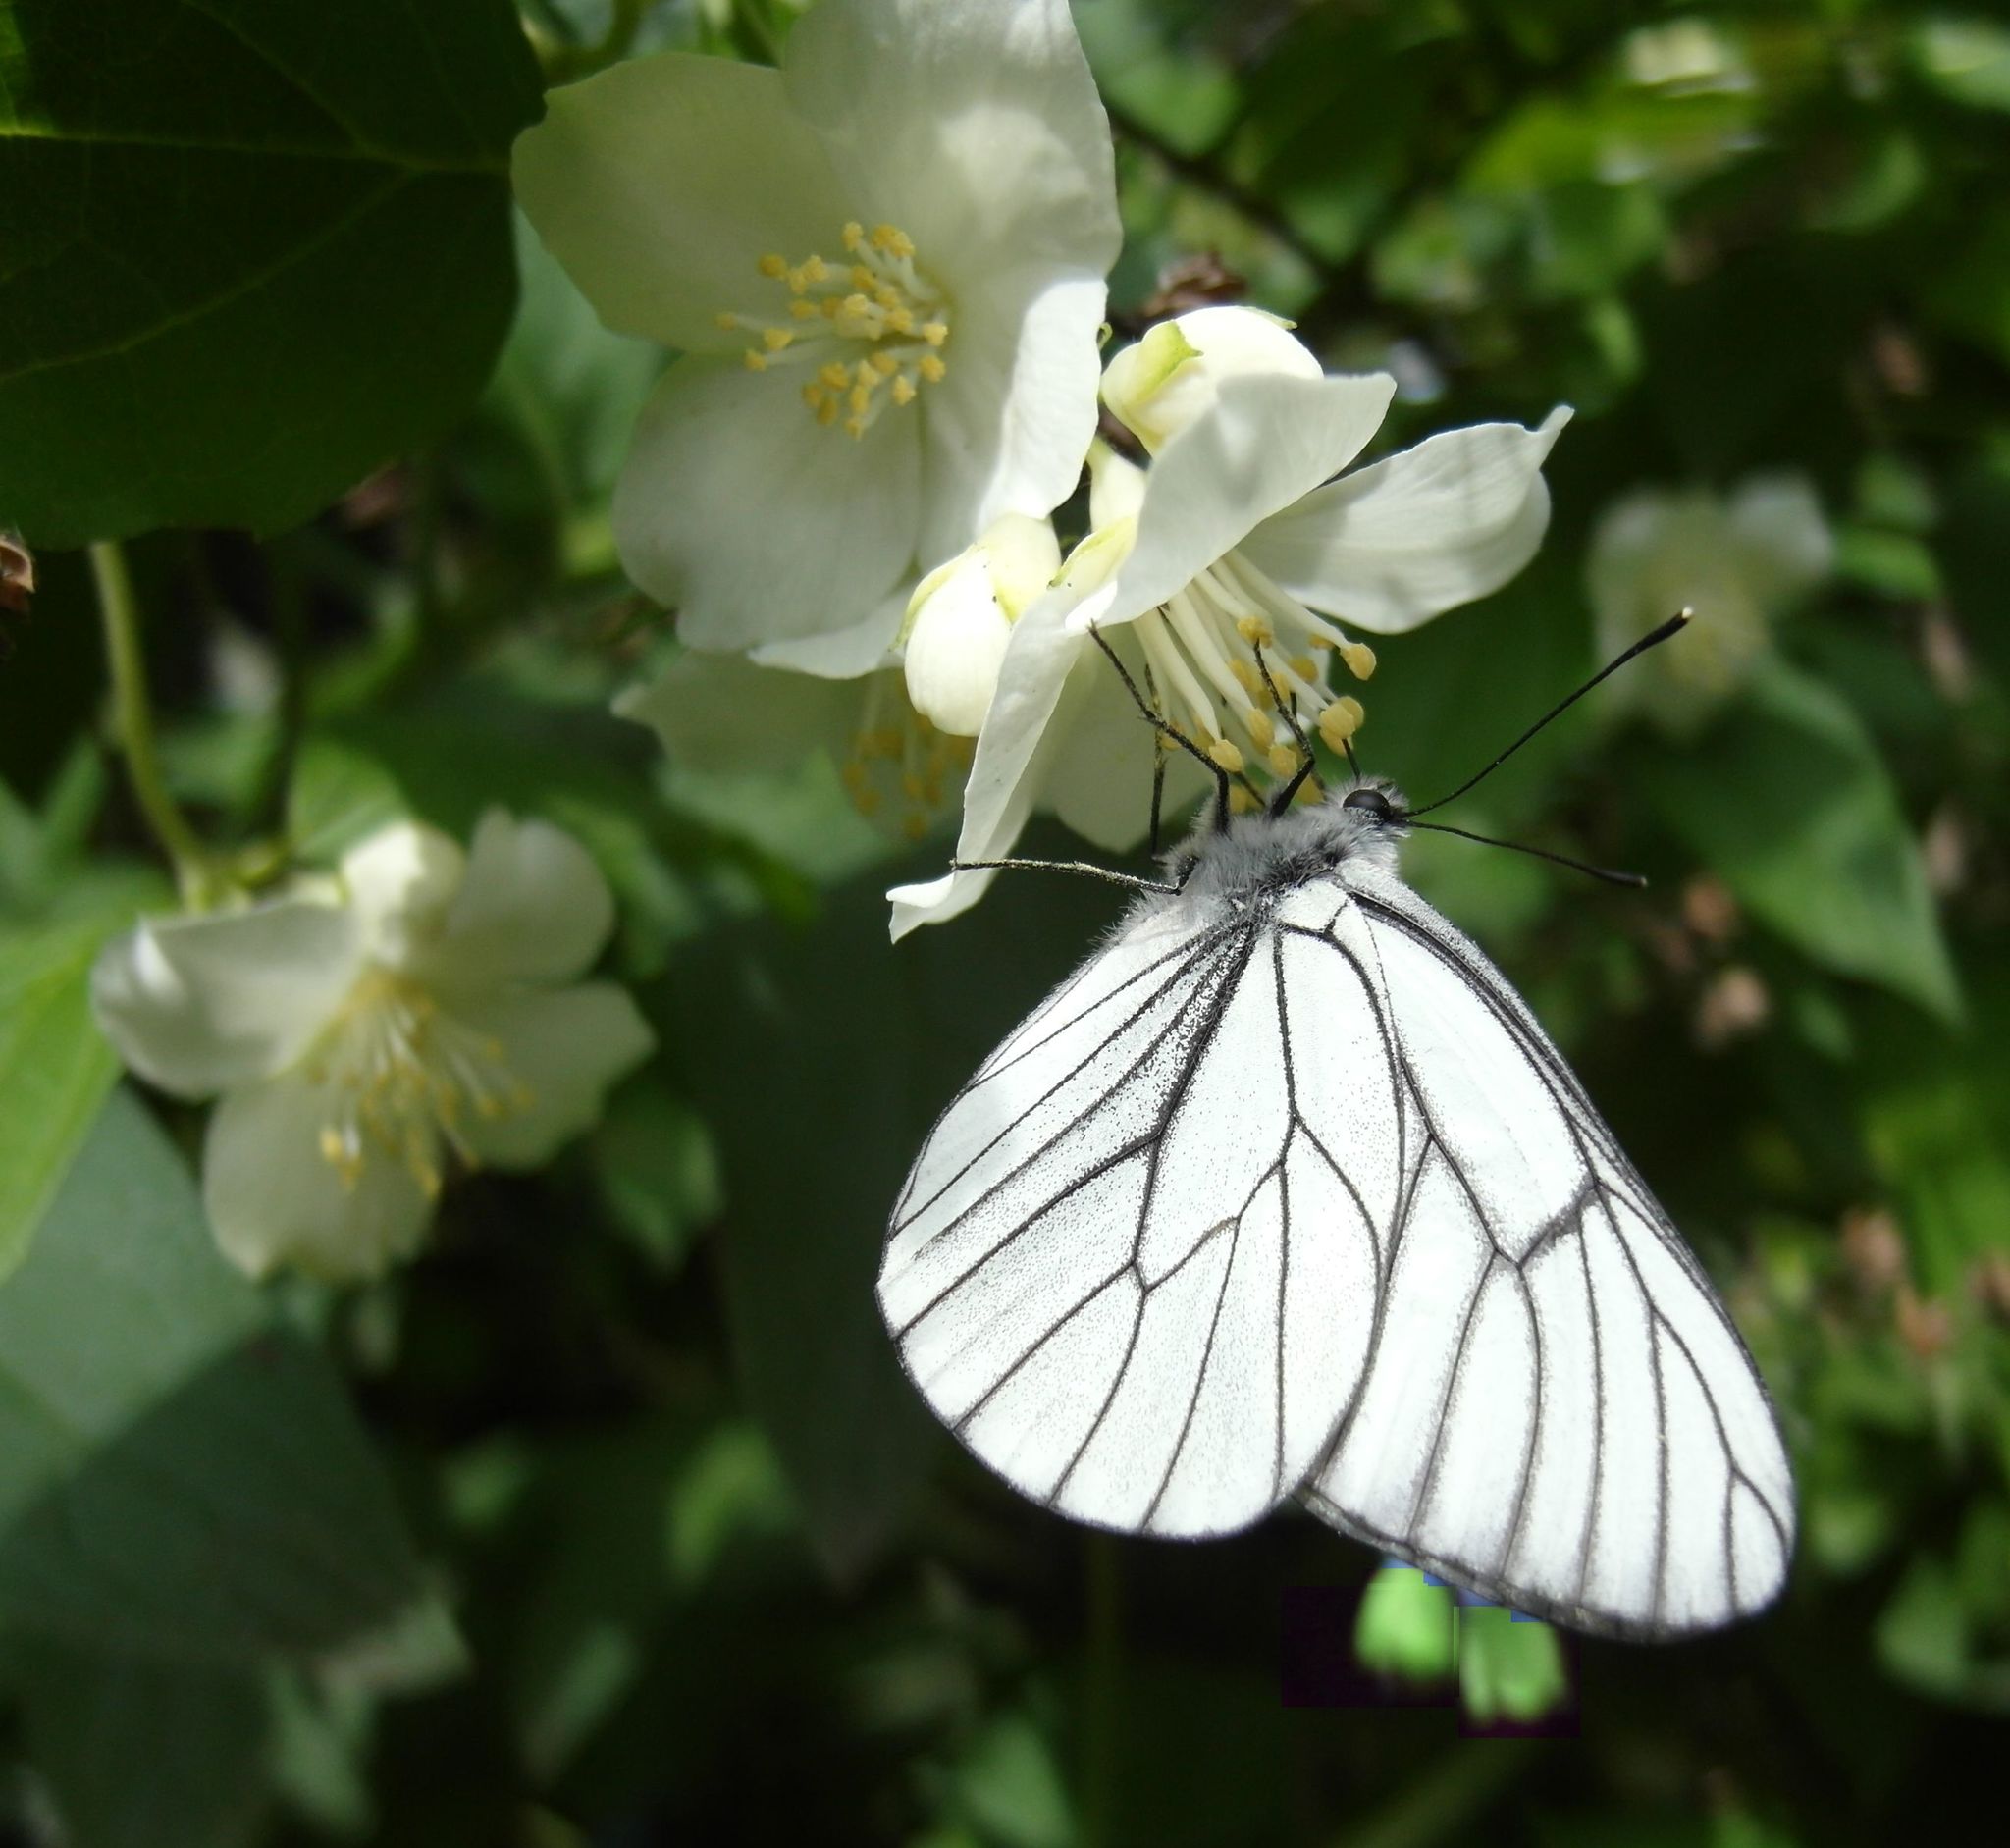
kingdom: Animalia
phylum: Arthropoda
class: Insecta
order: Lepidoptera
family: Pieridae
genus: Aporia
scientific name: Aporia crataegi
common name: Black-veined white
